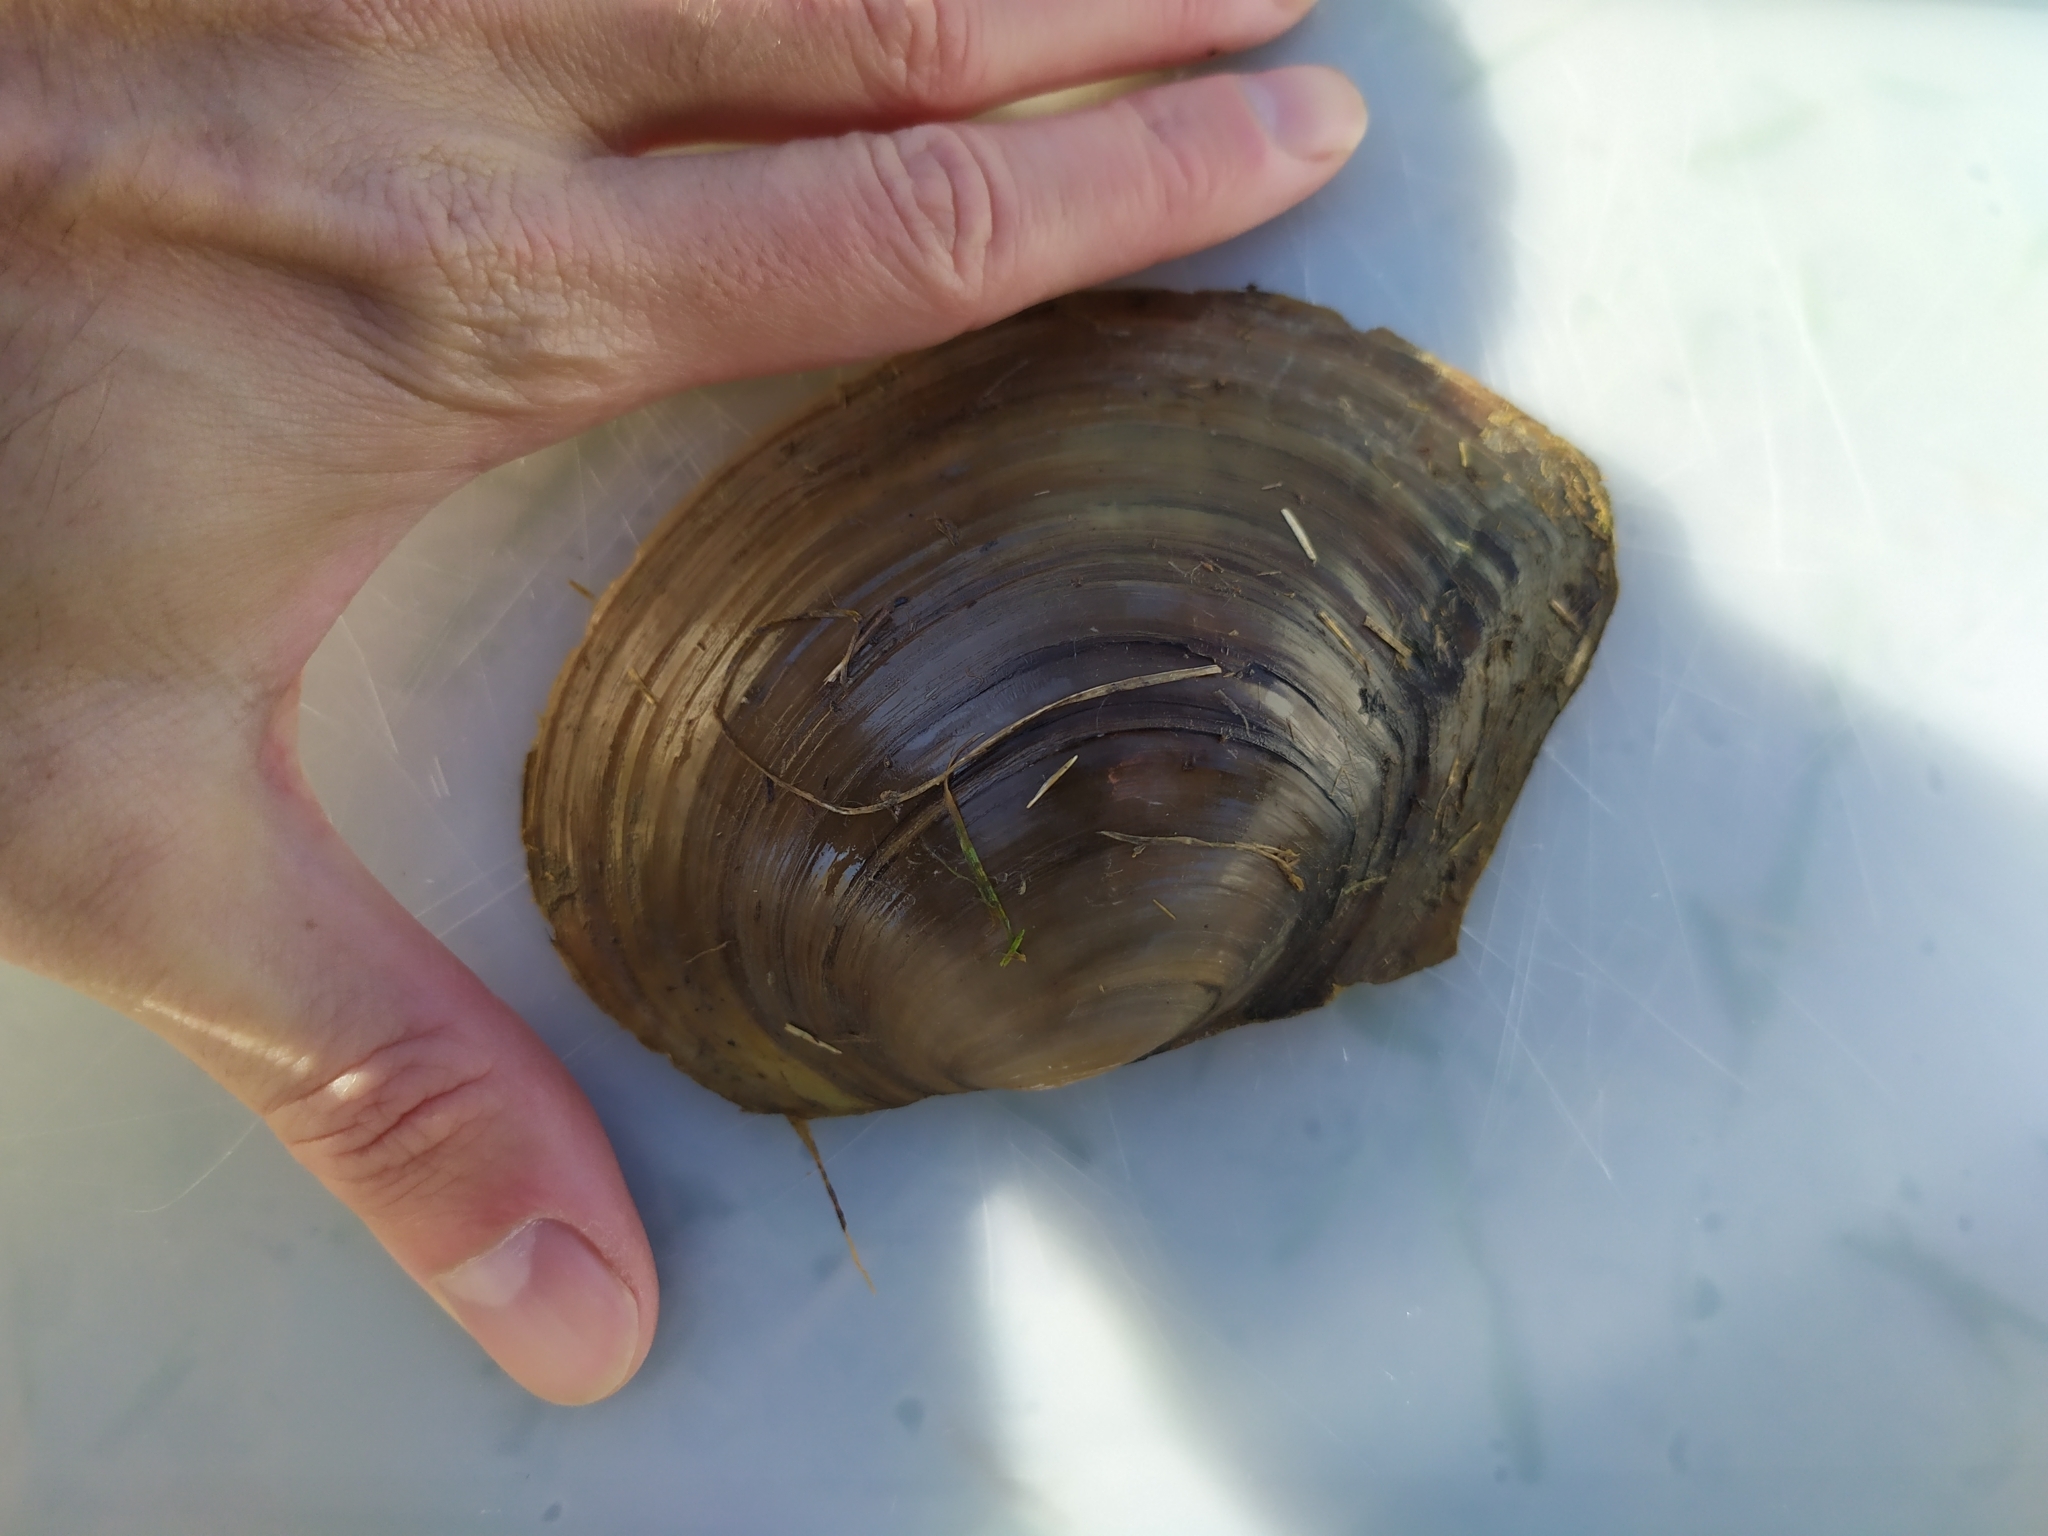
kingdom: Animalia
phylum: Mollusca
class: Bivalvia
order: Unionida
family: Unionidae
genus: Sinanodonta
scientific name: Sinanodonta woodiana
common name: Chinese pond mussel
